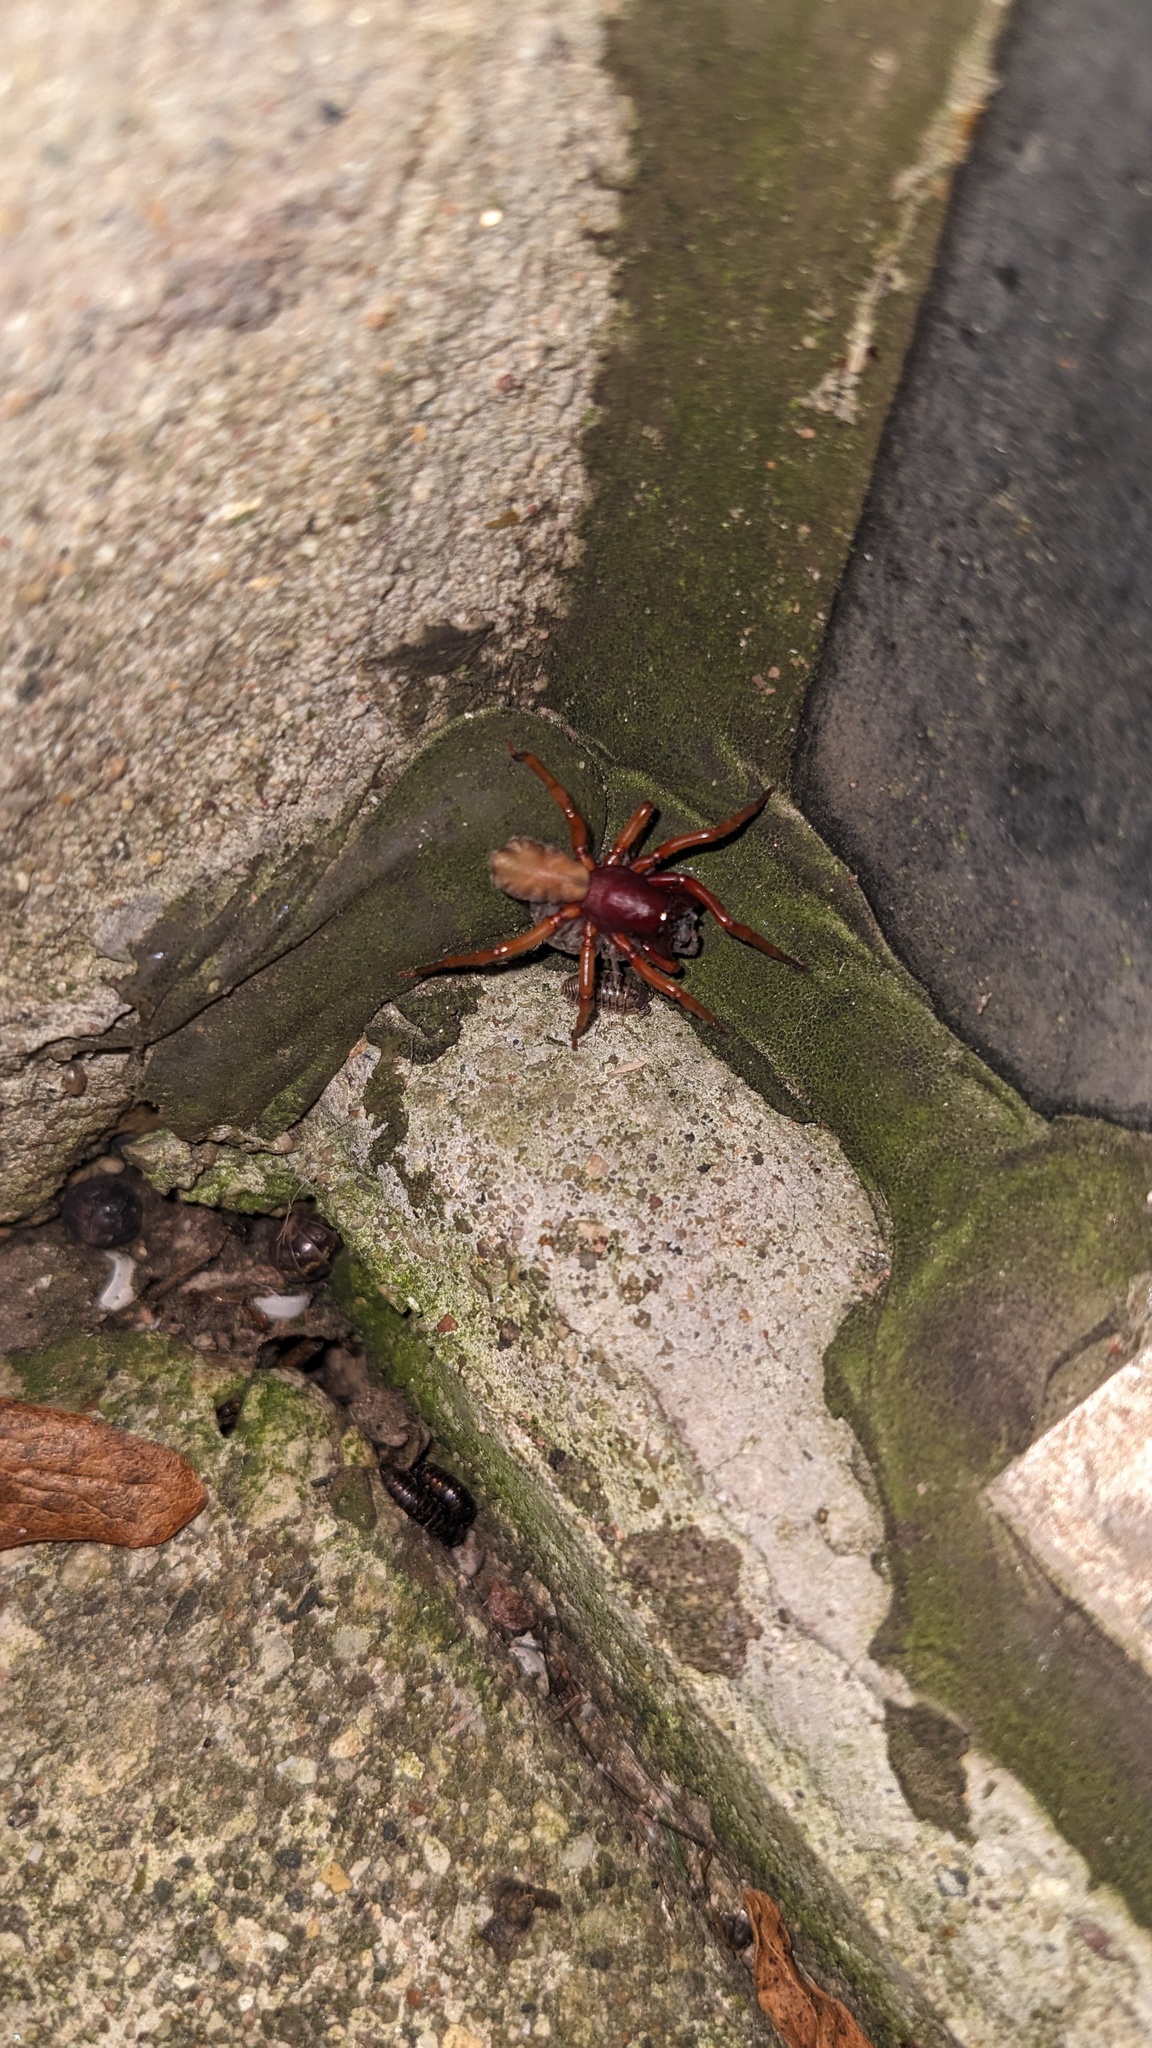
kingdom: Animalia
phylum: Arthropoda
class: Arachnida
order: Araneae
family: Dysderidae
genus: Dysdera
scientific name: Dysdera crocata
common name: Woodlouse spider
